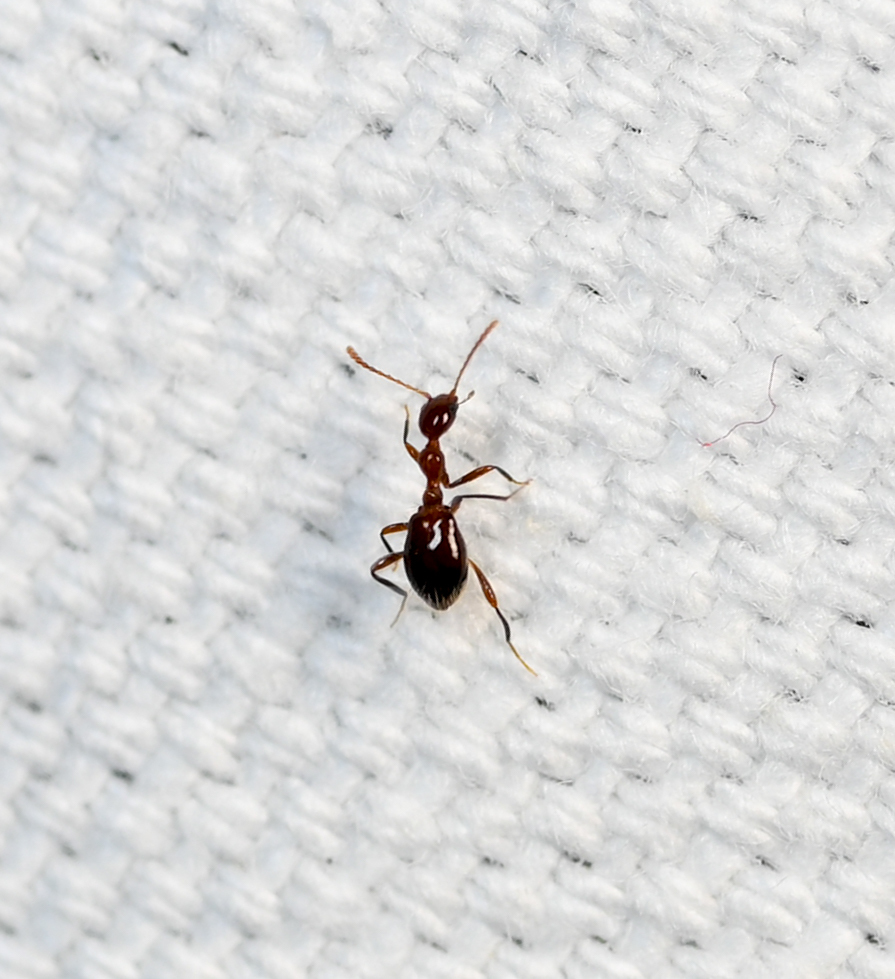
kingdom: Animalia
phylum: Arthropoda
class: Insecta
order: Coleoptera
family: Anthicidae
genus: Acanthinus
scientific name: Acanthinus
